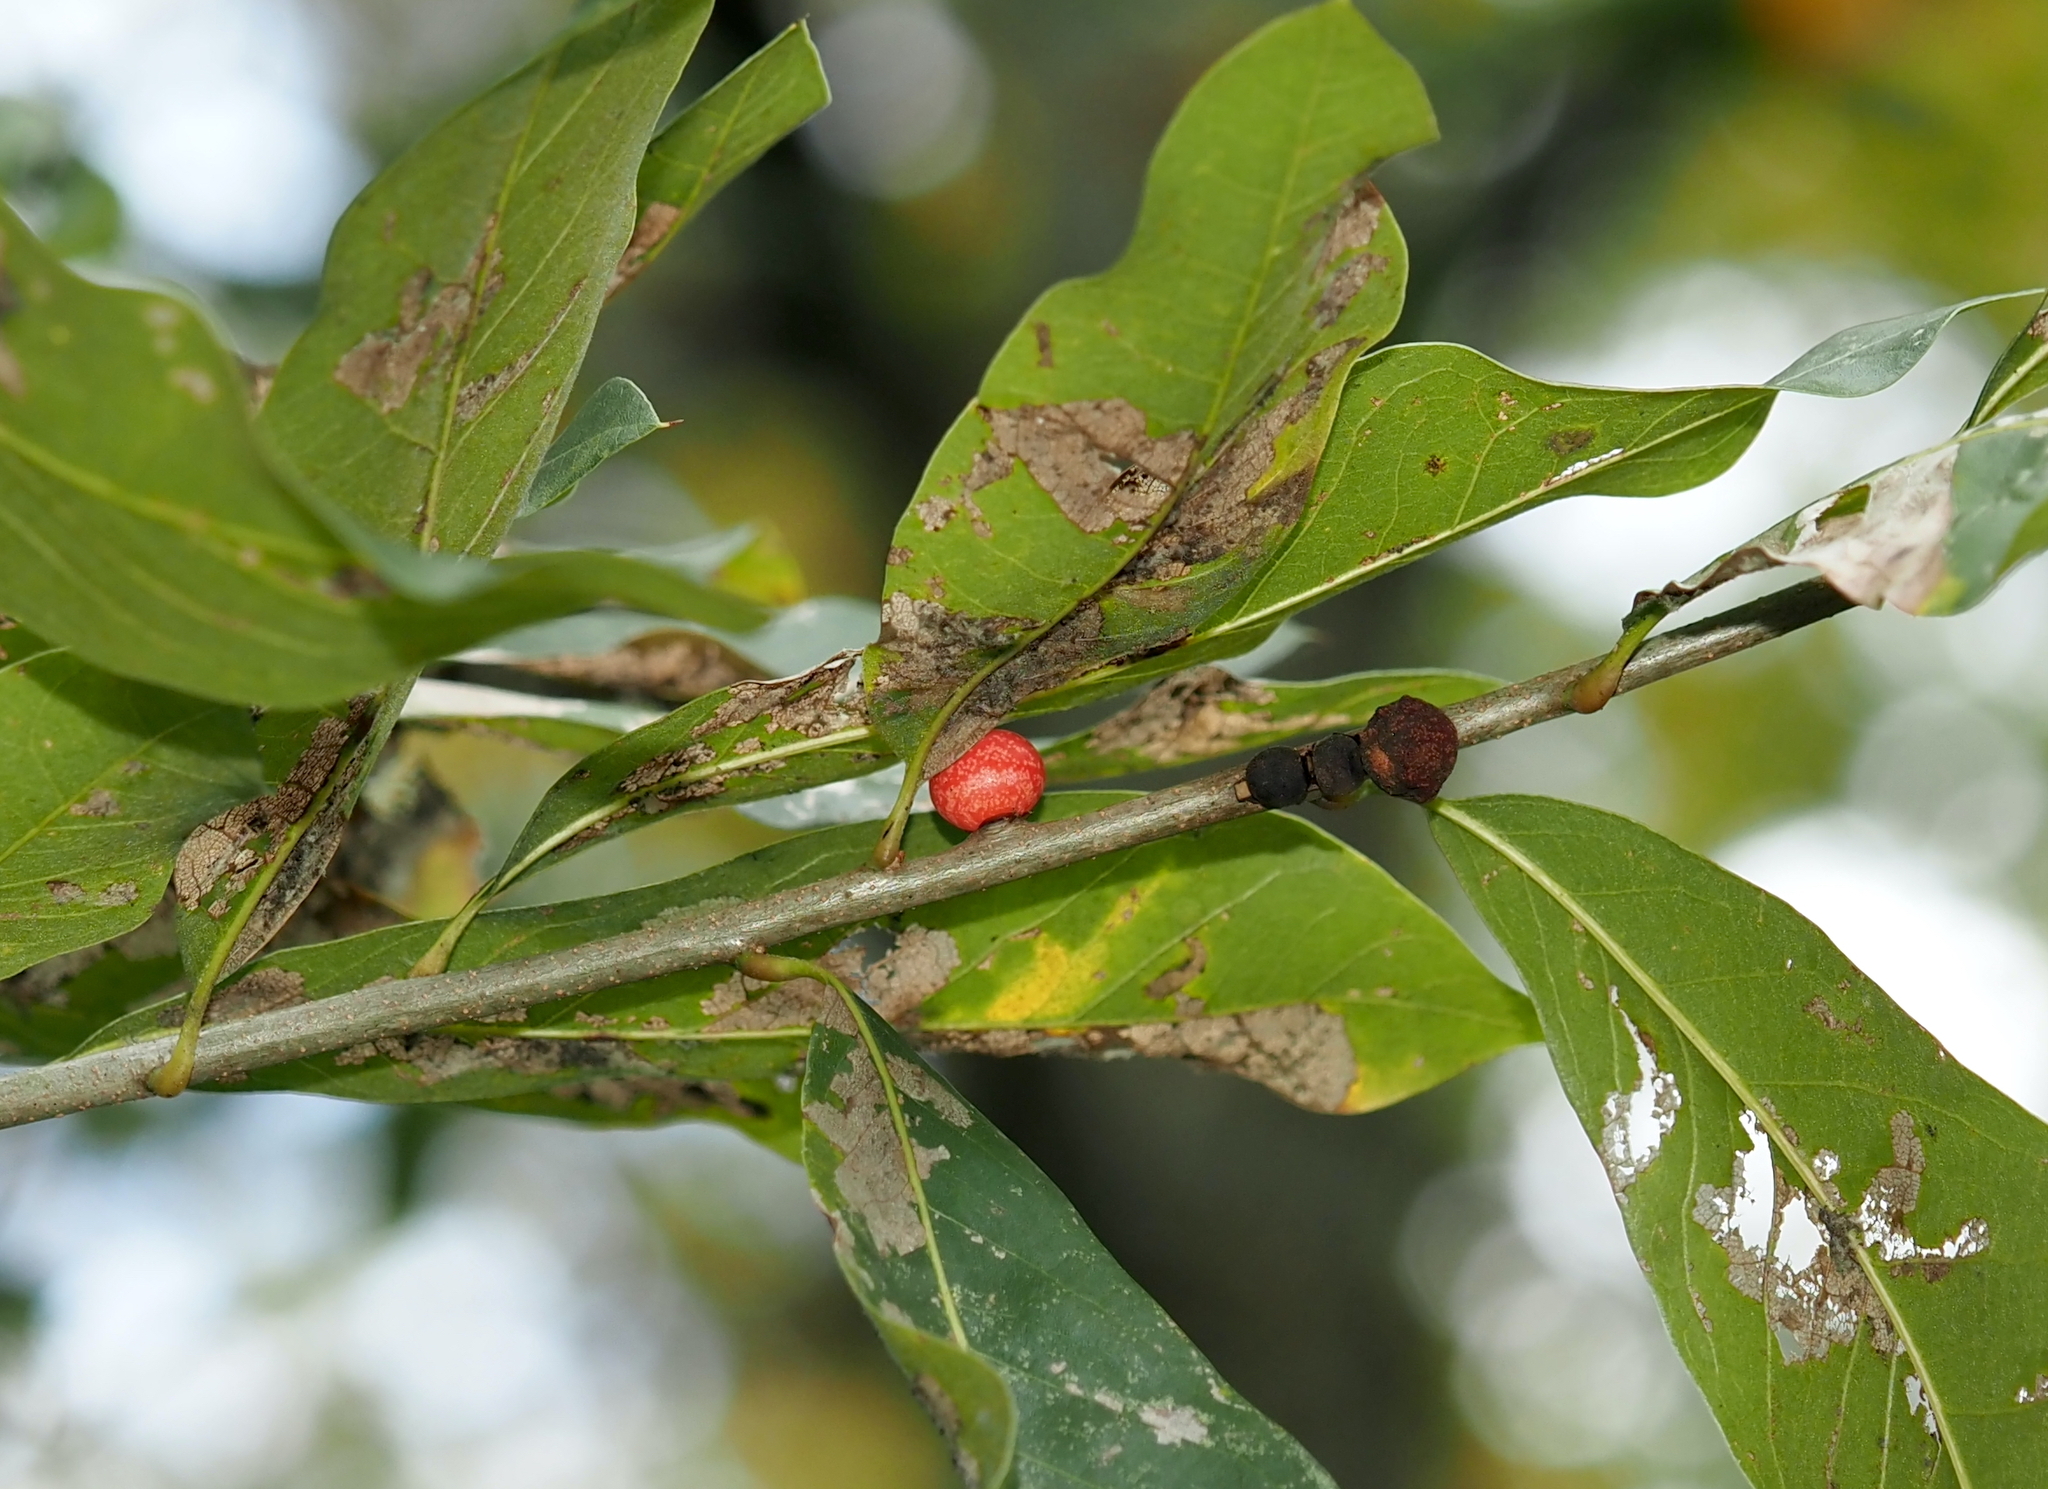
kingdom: Animalia
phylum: Arthropoda
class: Insecta
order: Hymenoptera
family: Cynipidae
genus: Kokkocynips
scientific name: Kokkocynips imbricariae
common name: Banded bullet gall wasp
